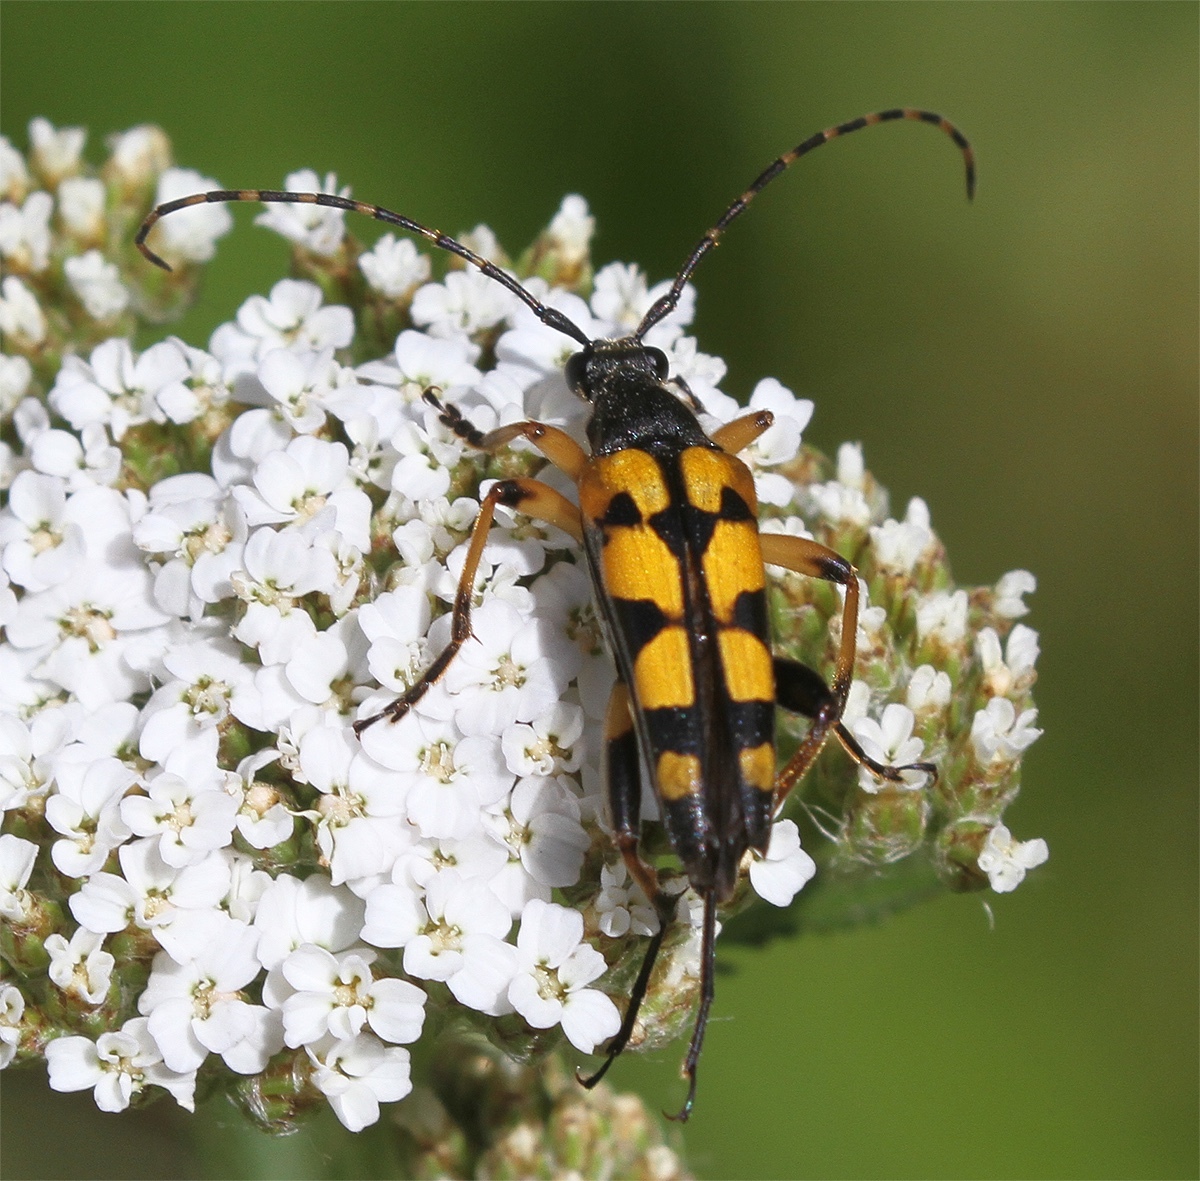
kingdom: Animalia
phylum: Arthropoda
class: Insecta
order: Coleoptera
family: Cerambycidae
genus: Rutpela
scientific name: Rutpela maculata
